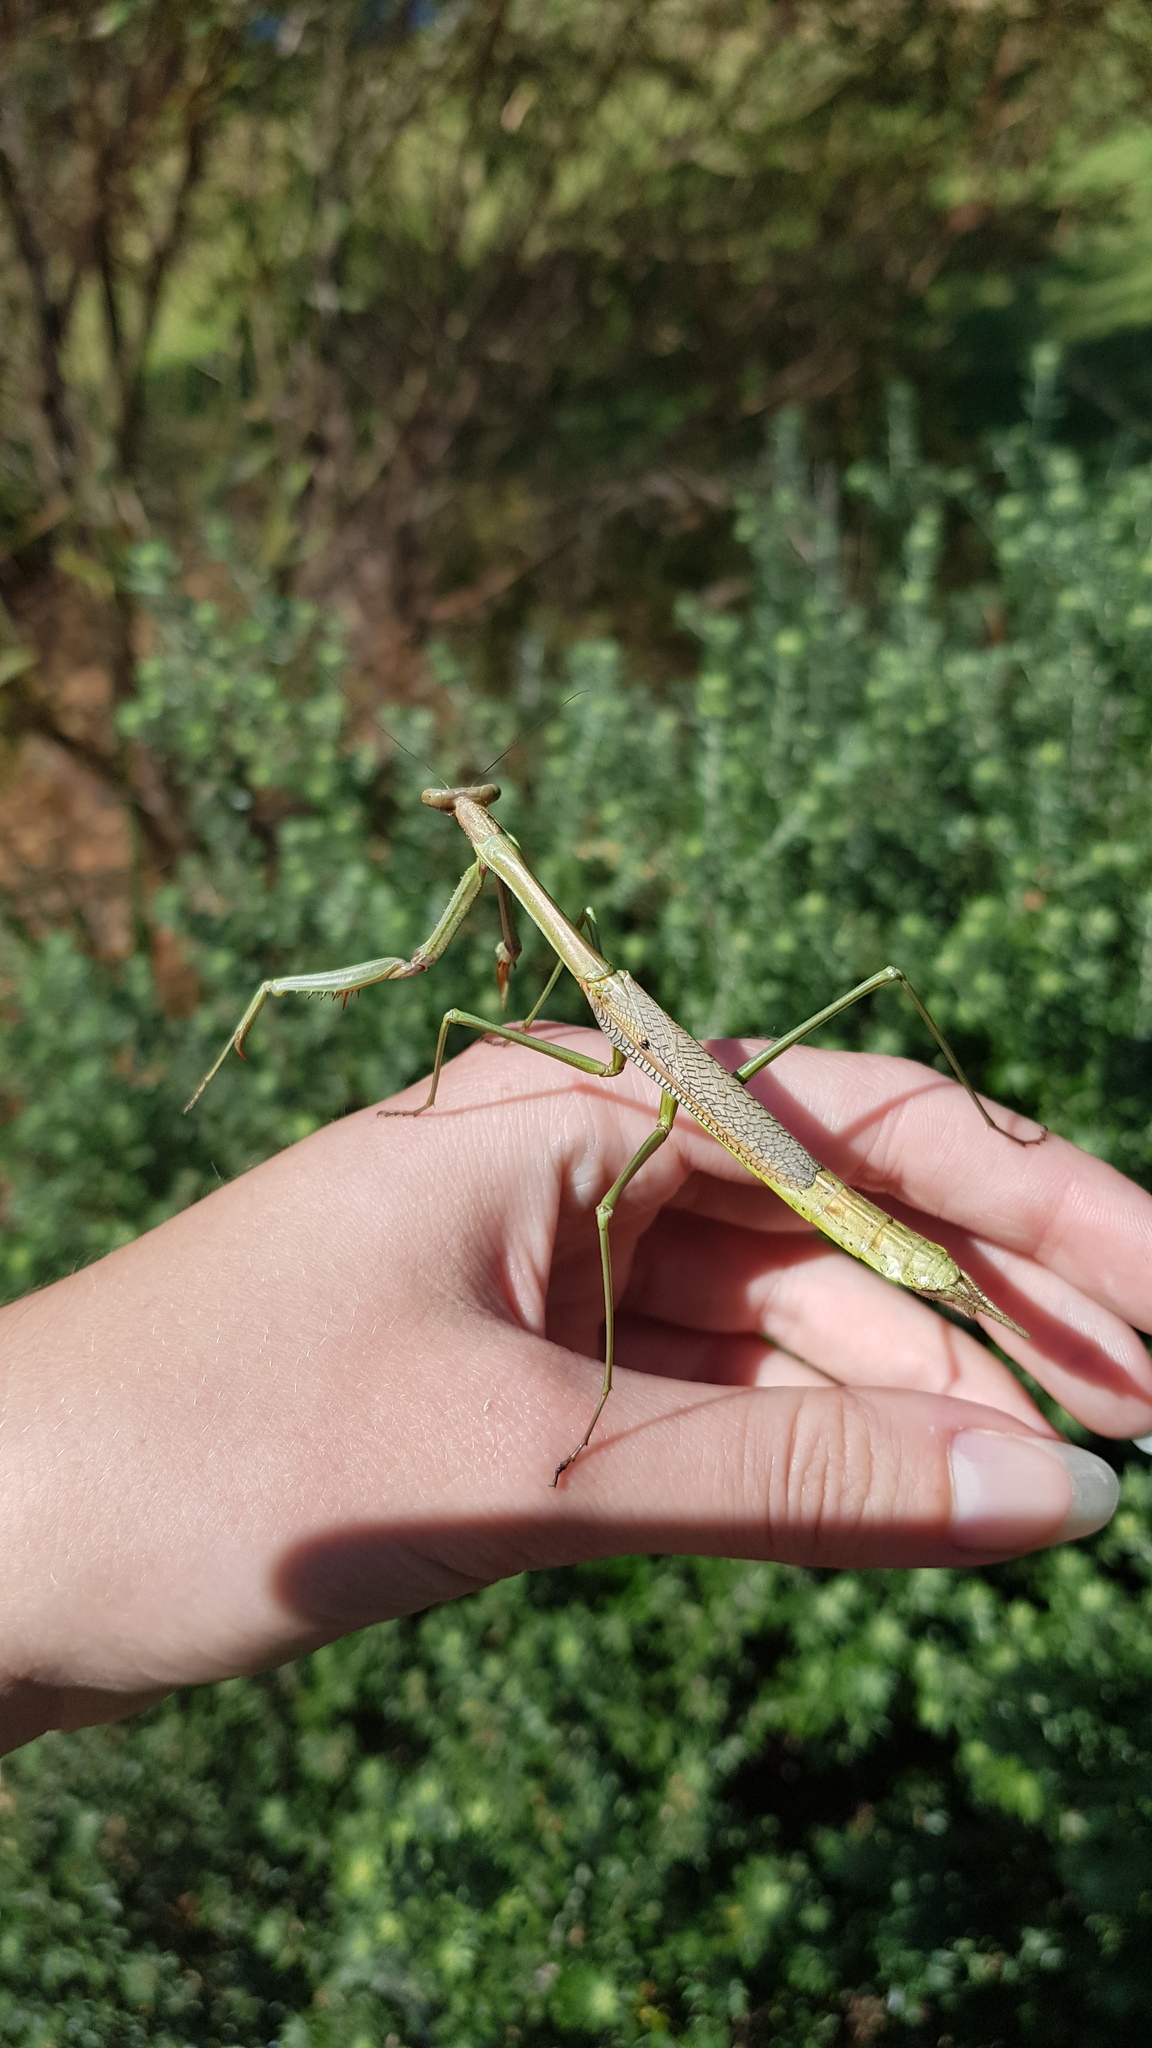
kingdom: Animalia
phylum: Arthropoda
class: Insecta
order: Mantodea
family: Mantidae
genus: Archimantis
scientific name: Archimantis latistyla
